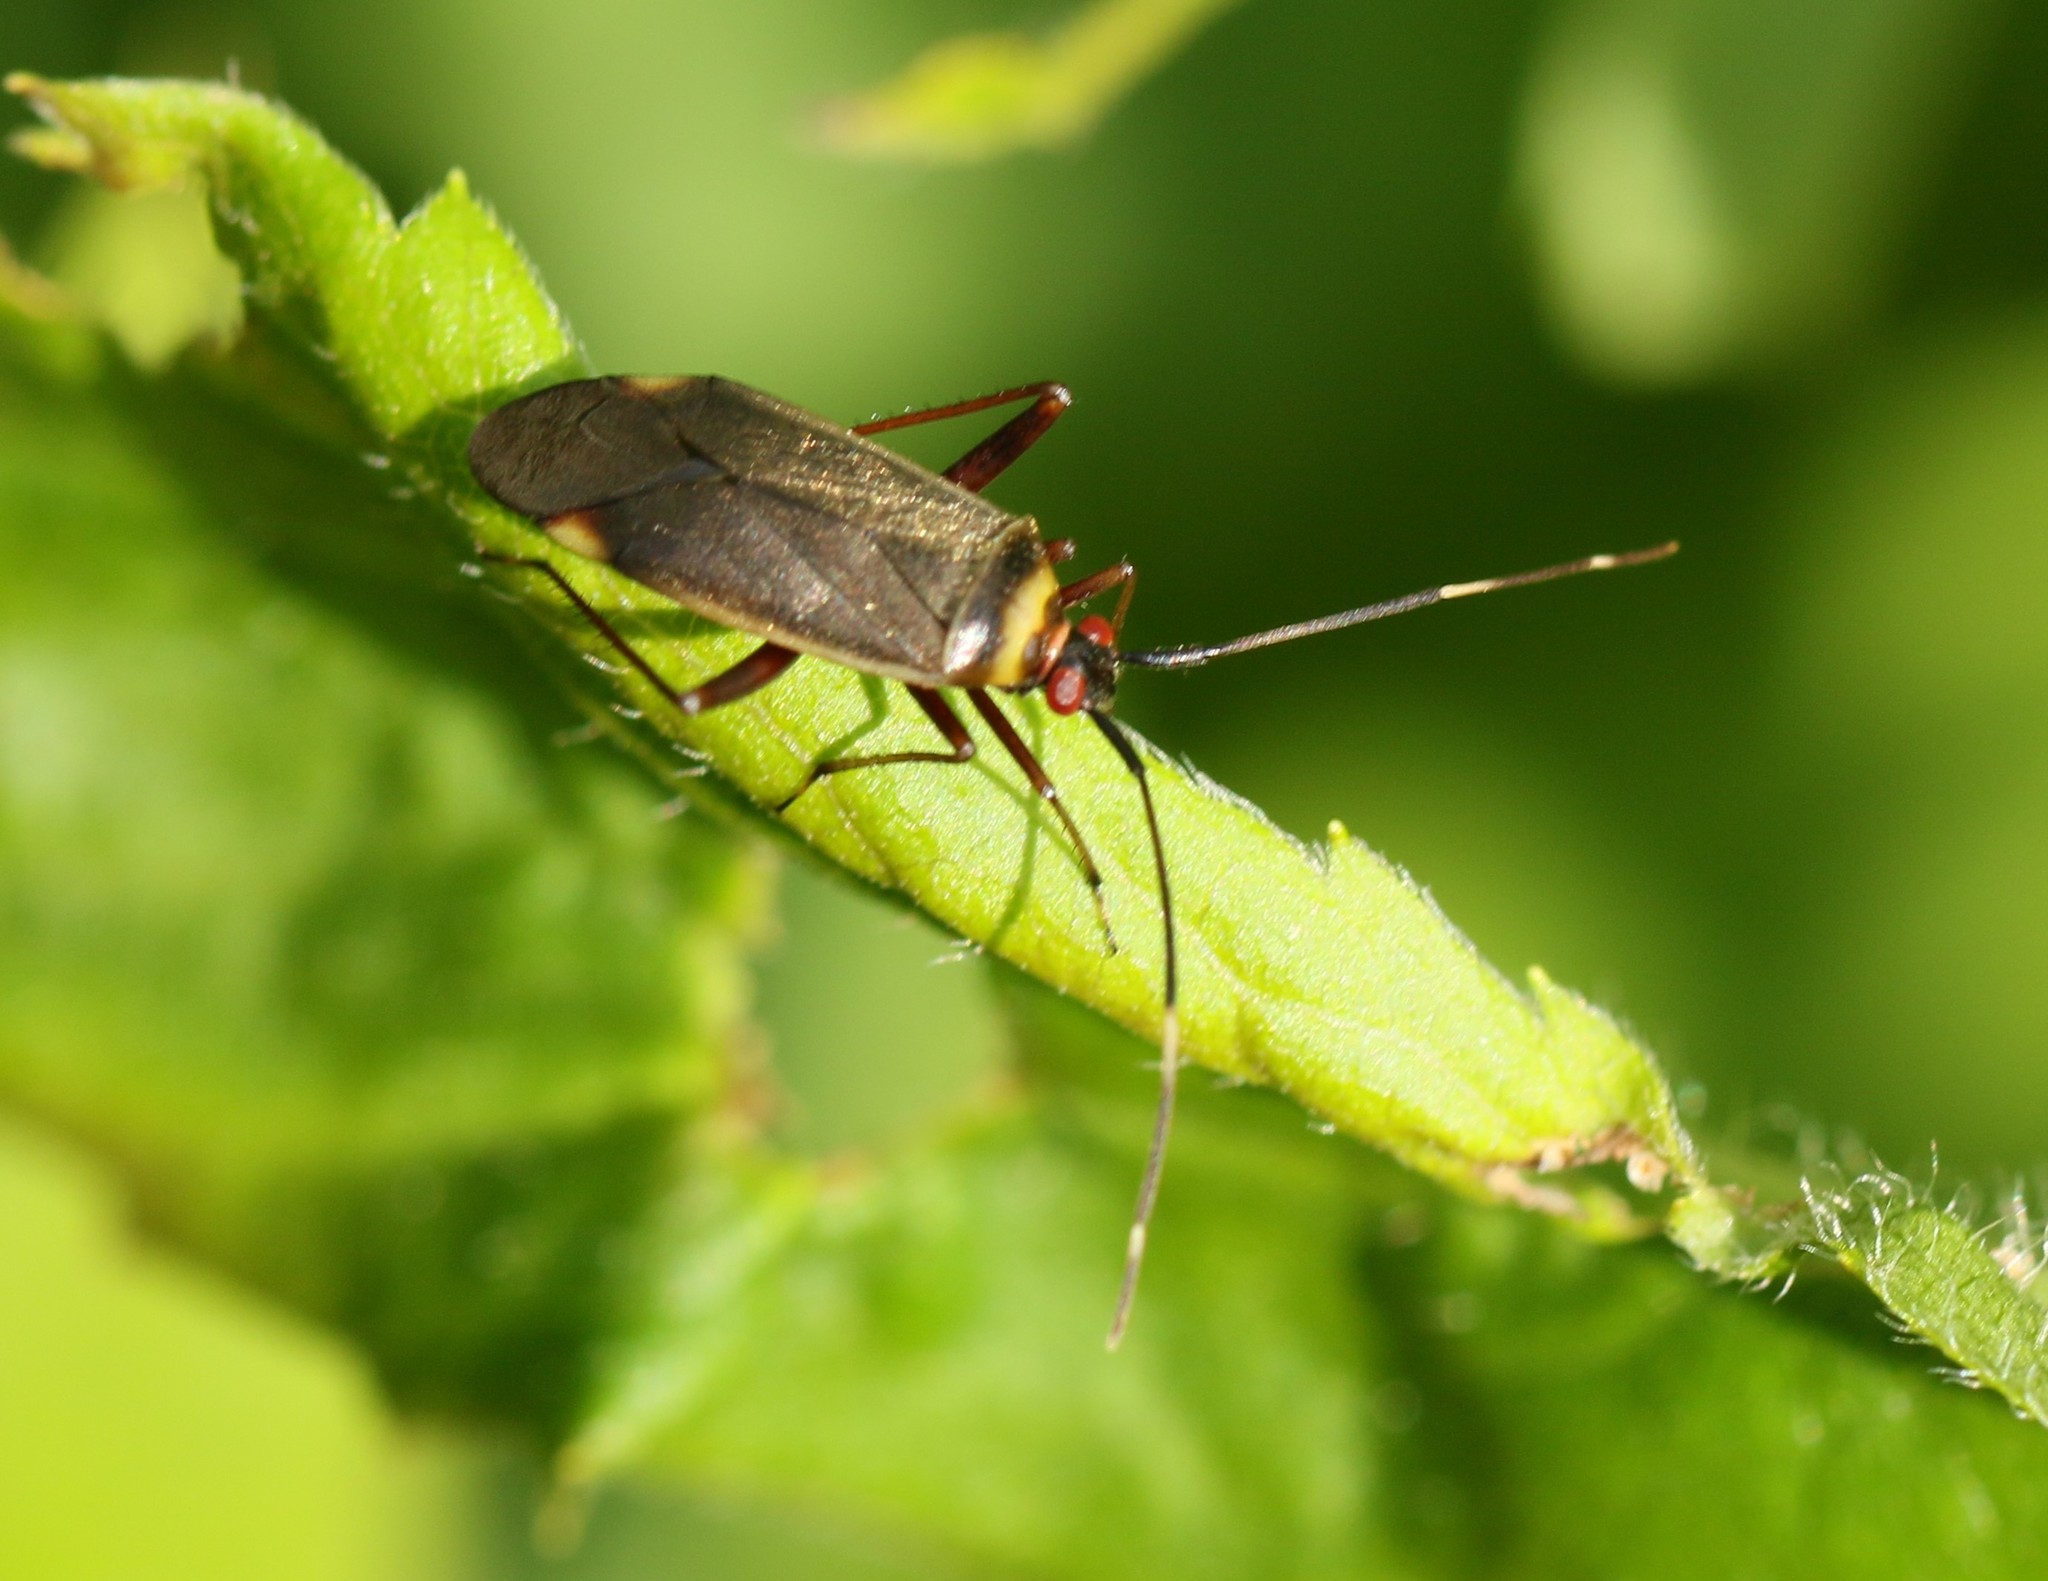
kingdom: Animalia
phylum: Arthropoda
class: Insecta
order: Hemiptera
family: Miridae
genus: Adelphocoris
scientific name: Adelphocoris rapidus
